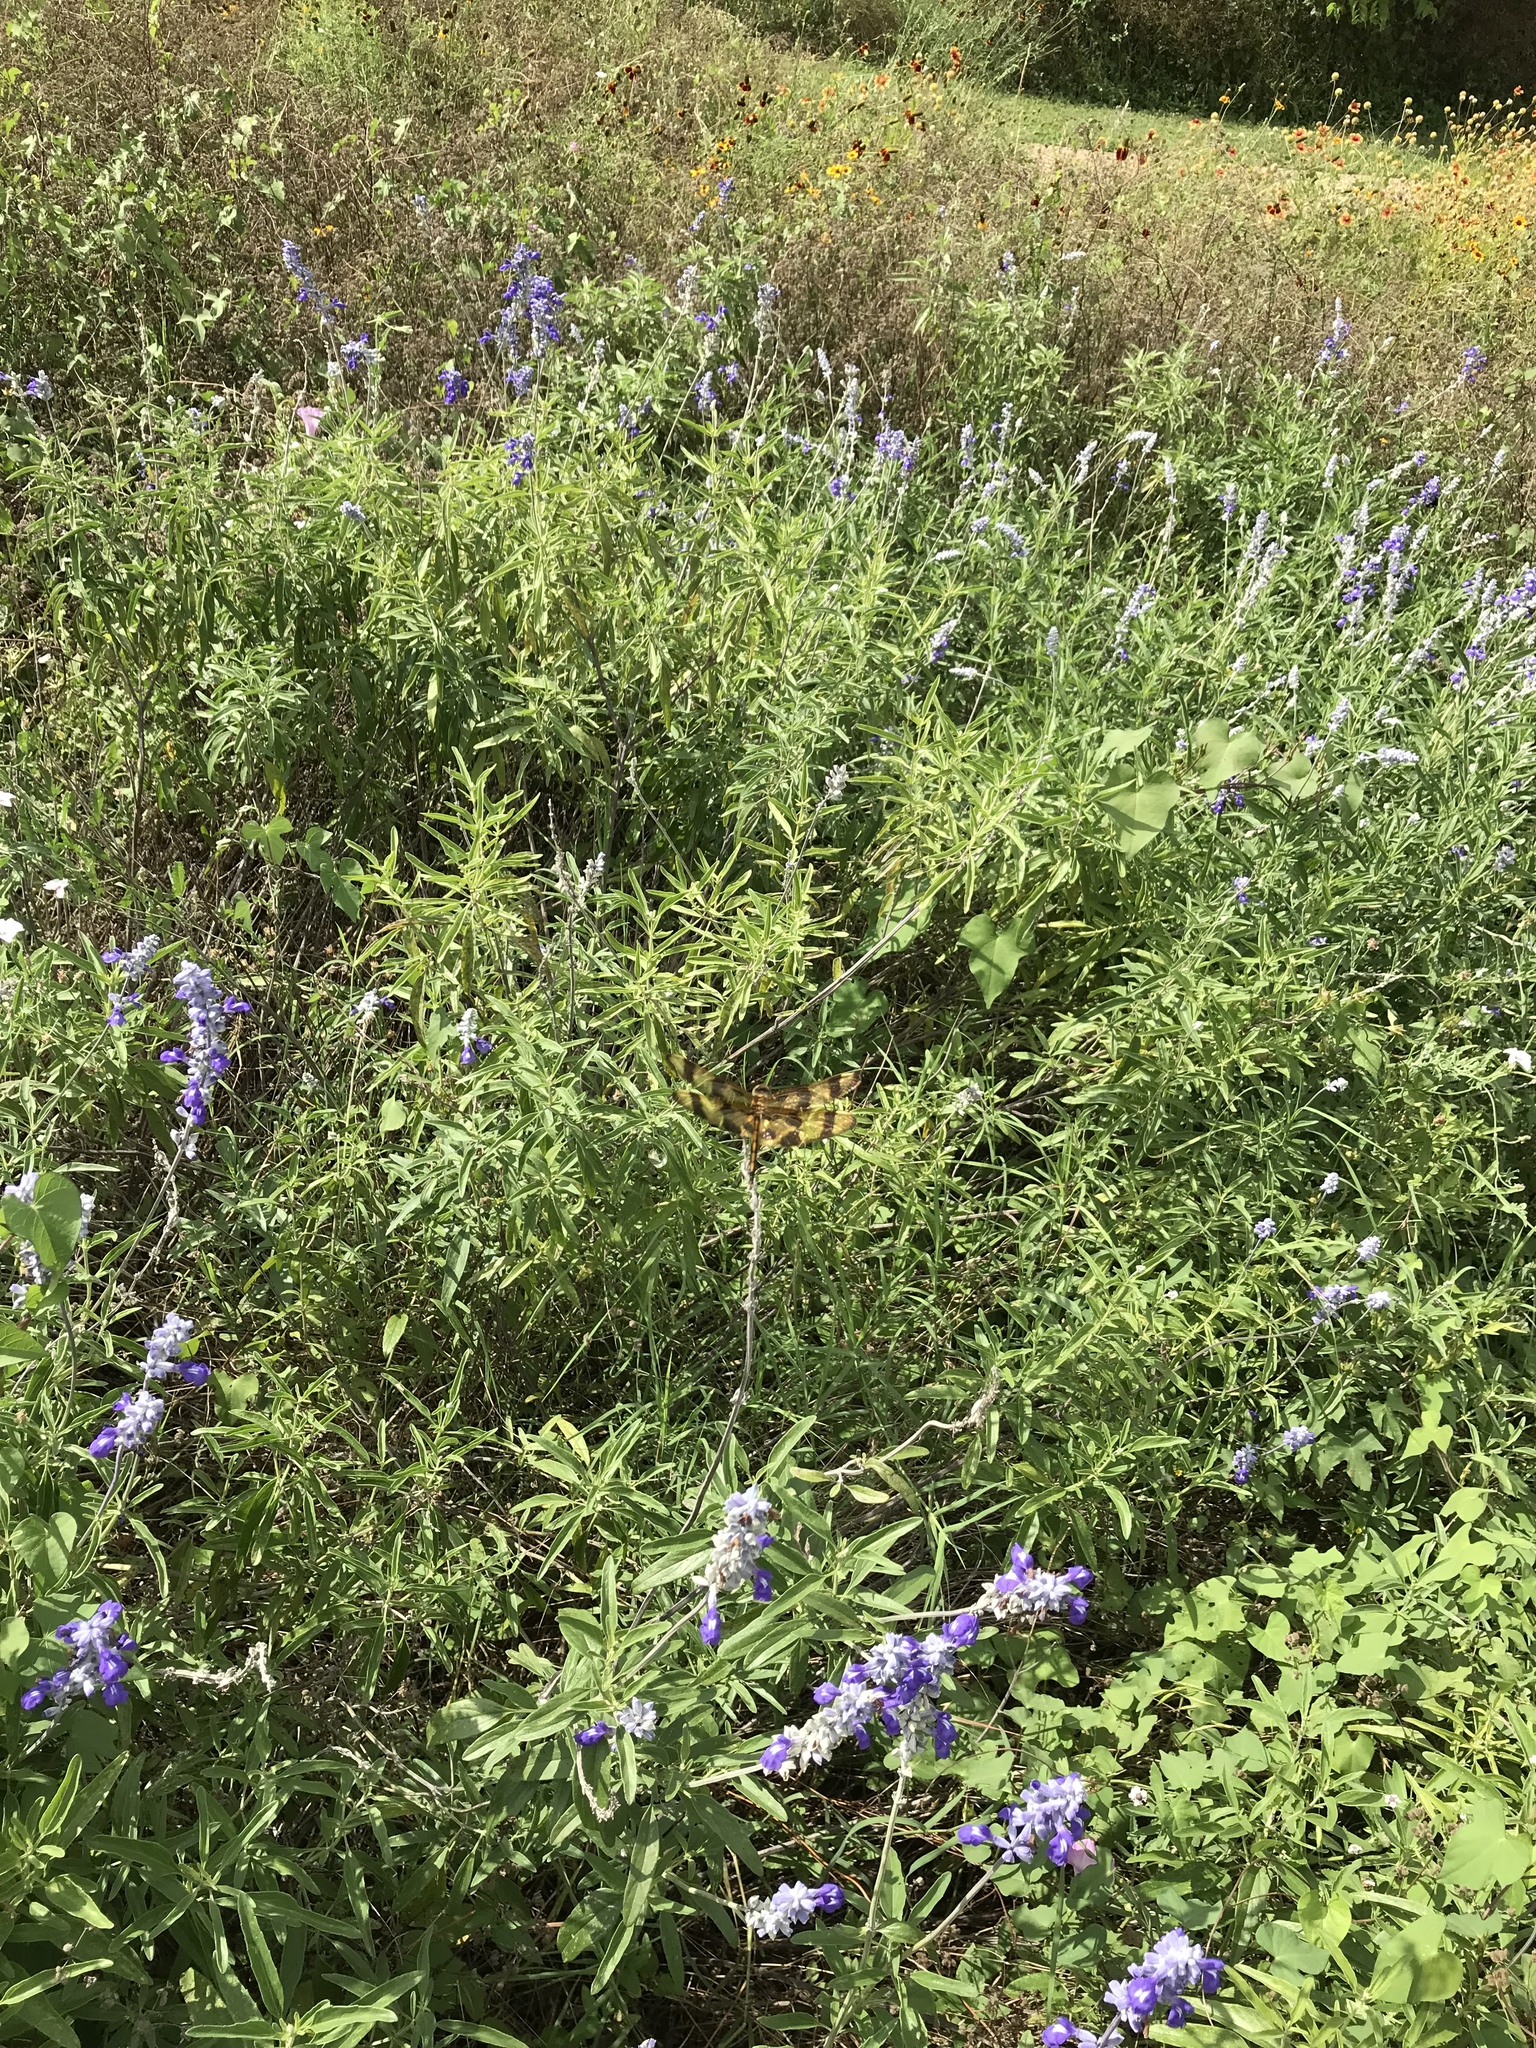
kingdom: Animalia
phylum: Arthropoda
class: Insecta
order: Odonata
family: Libellulidae
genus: Celithemis
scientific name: Celithemis eponina
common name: Halloween pennant
